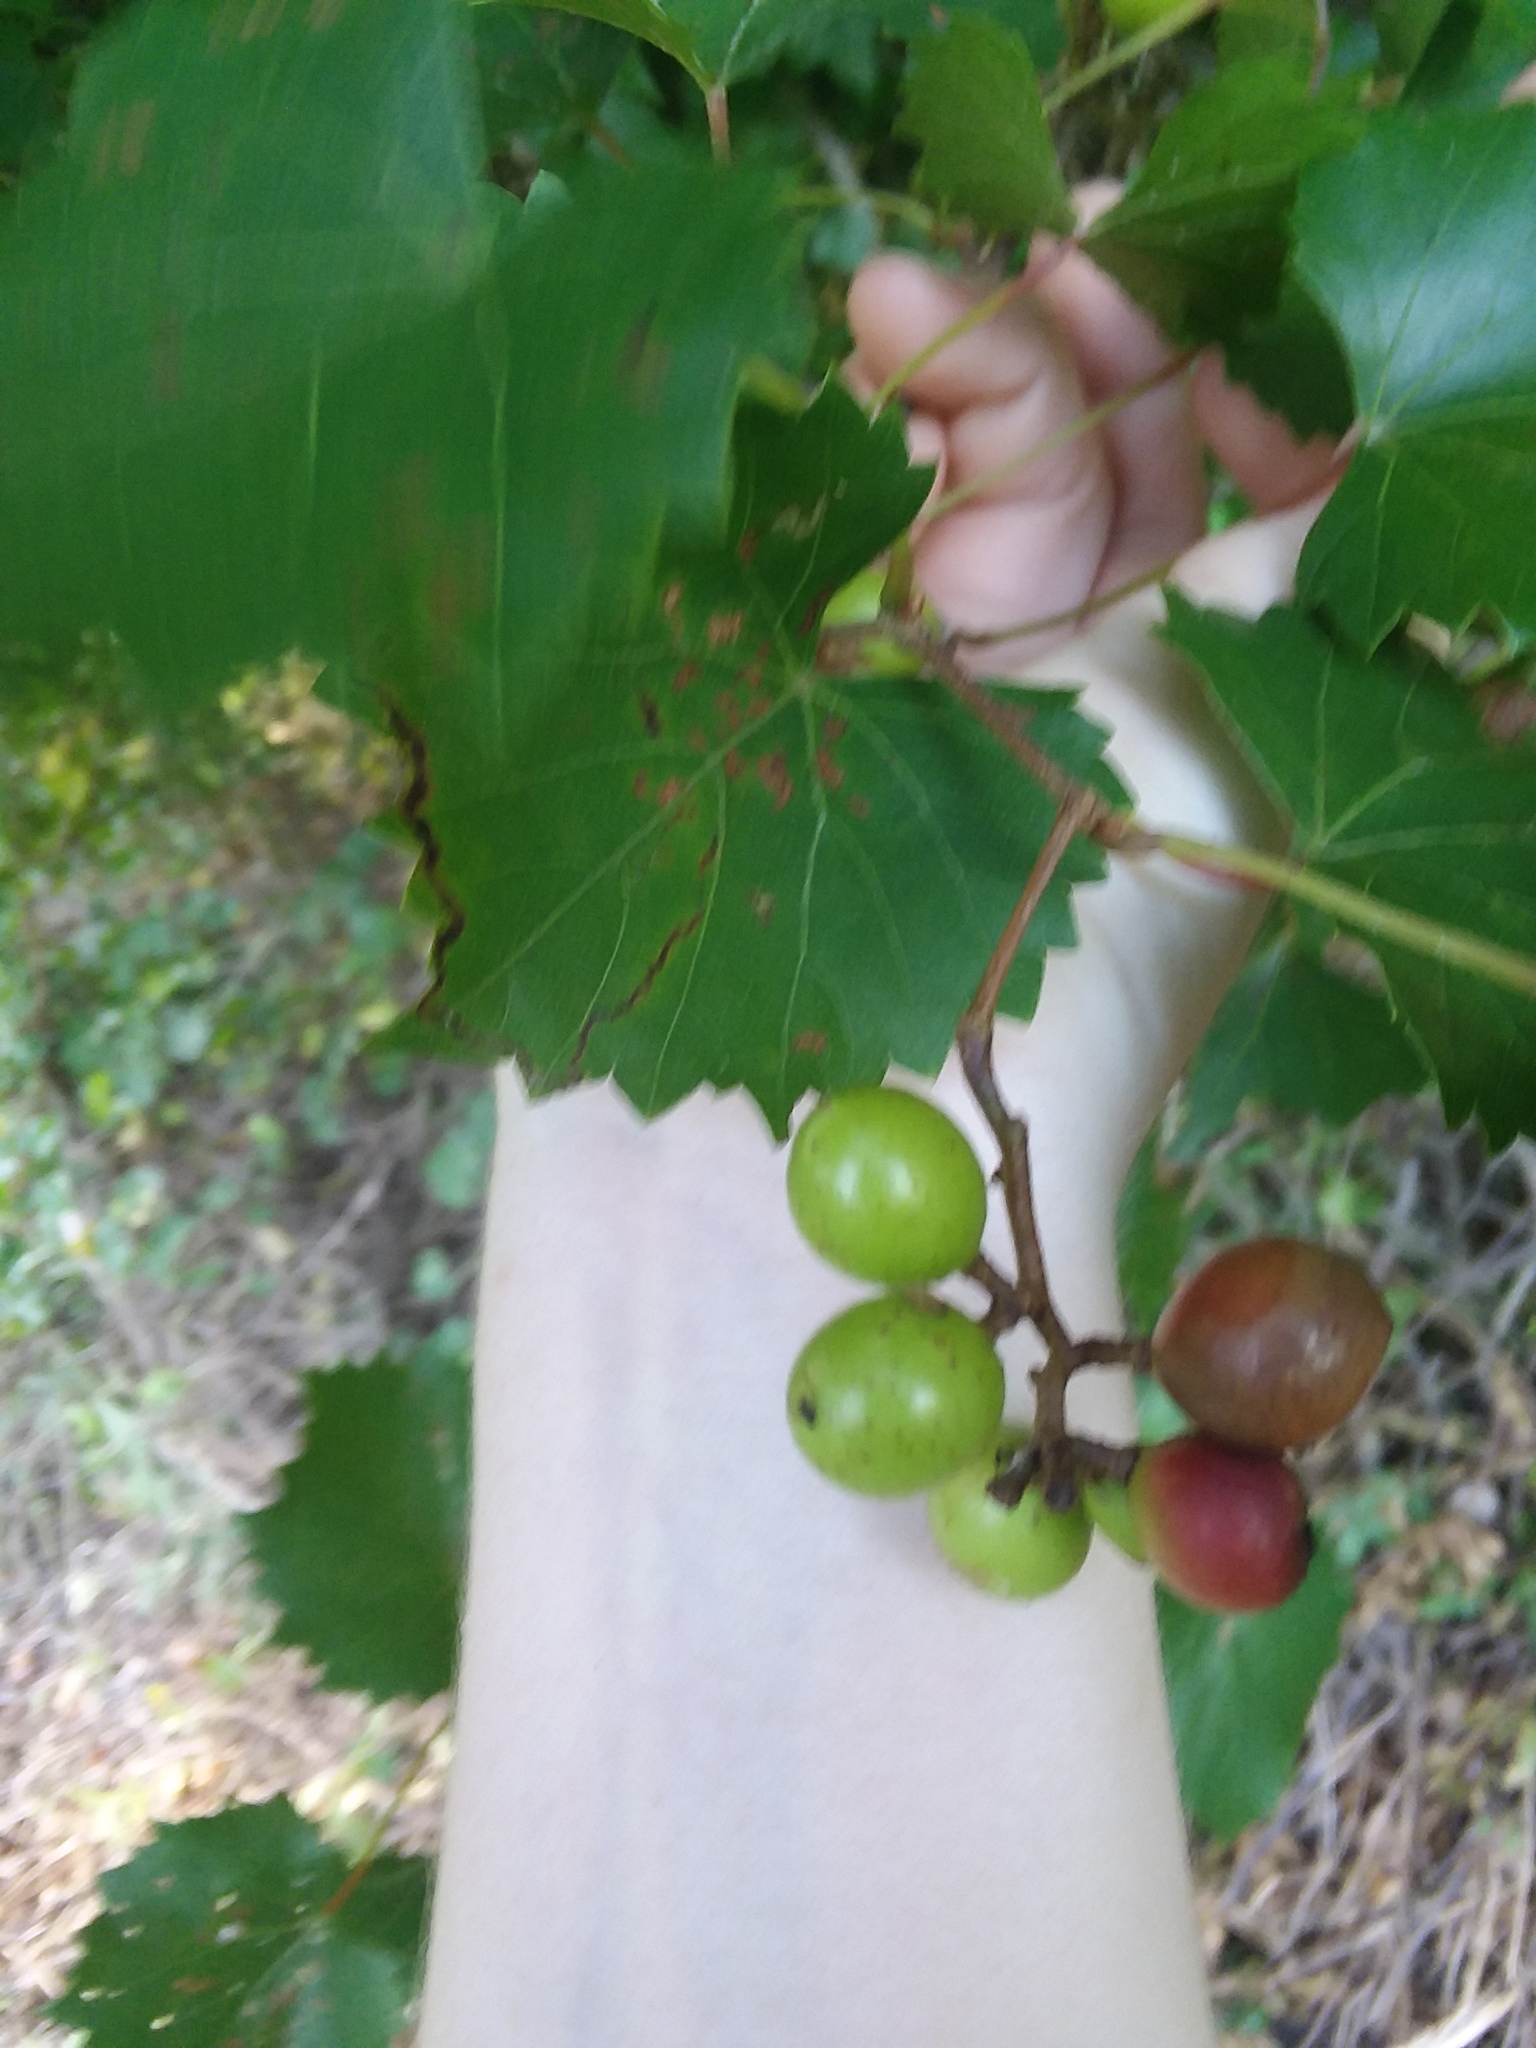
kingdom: Plantae
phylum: Tracheophyta
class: Magnoliopsida
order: Vitales
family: Vitaceae
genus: Vitis
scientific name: Vitis rotundifolia
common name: Muscadine grape
